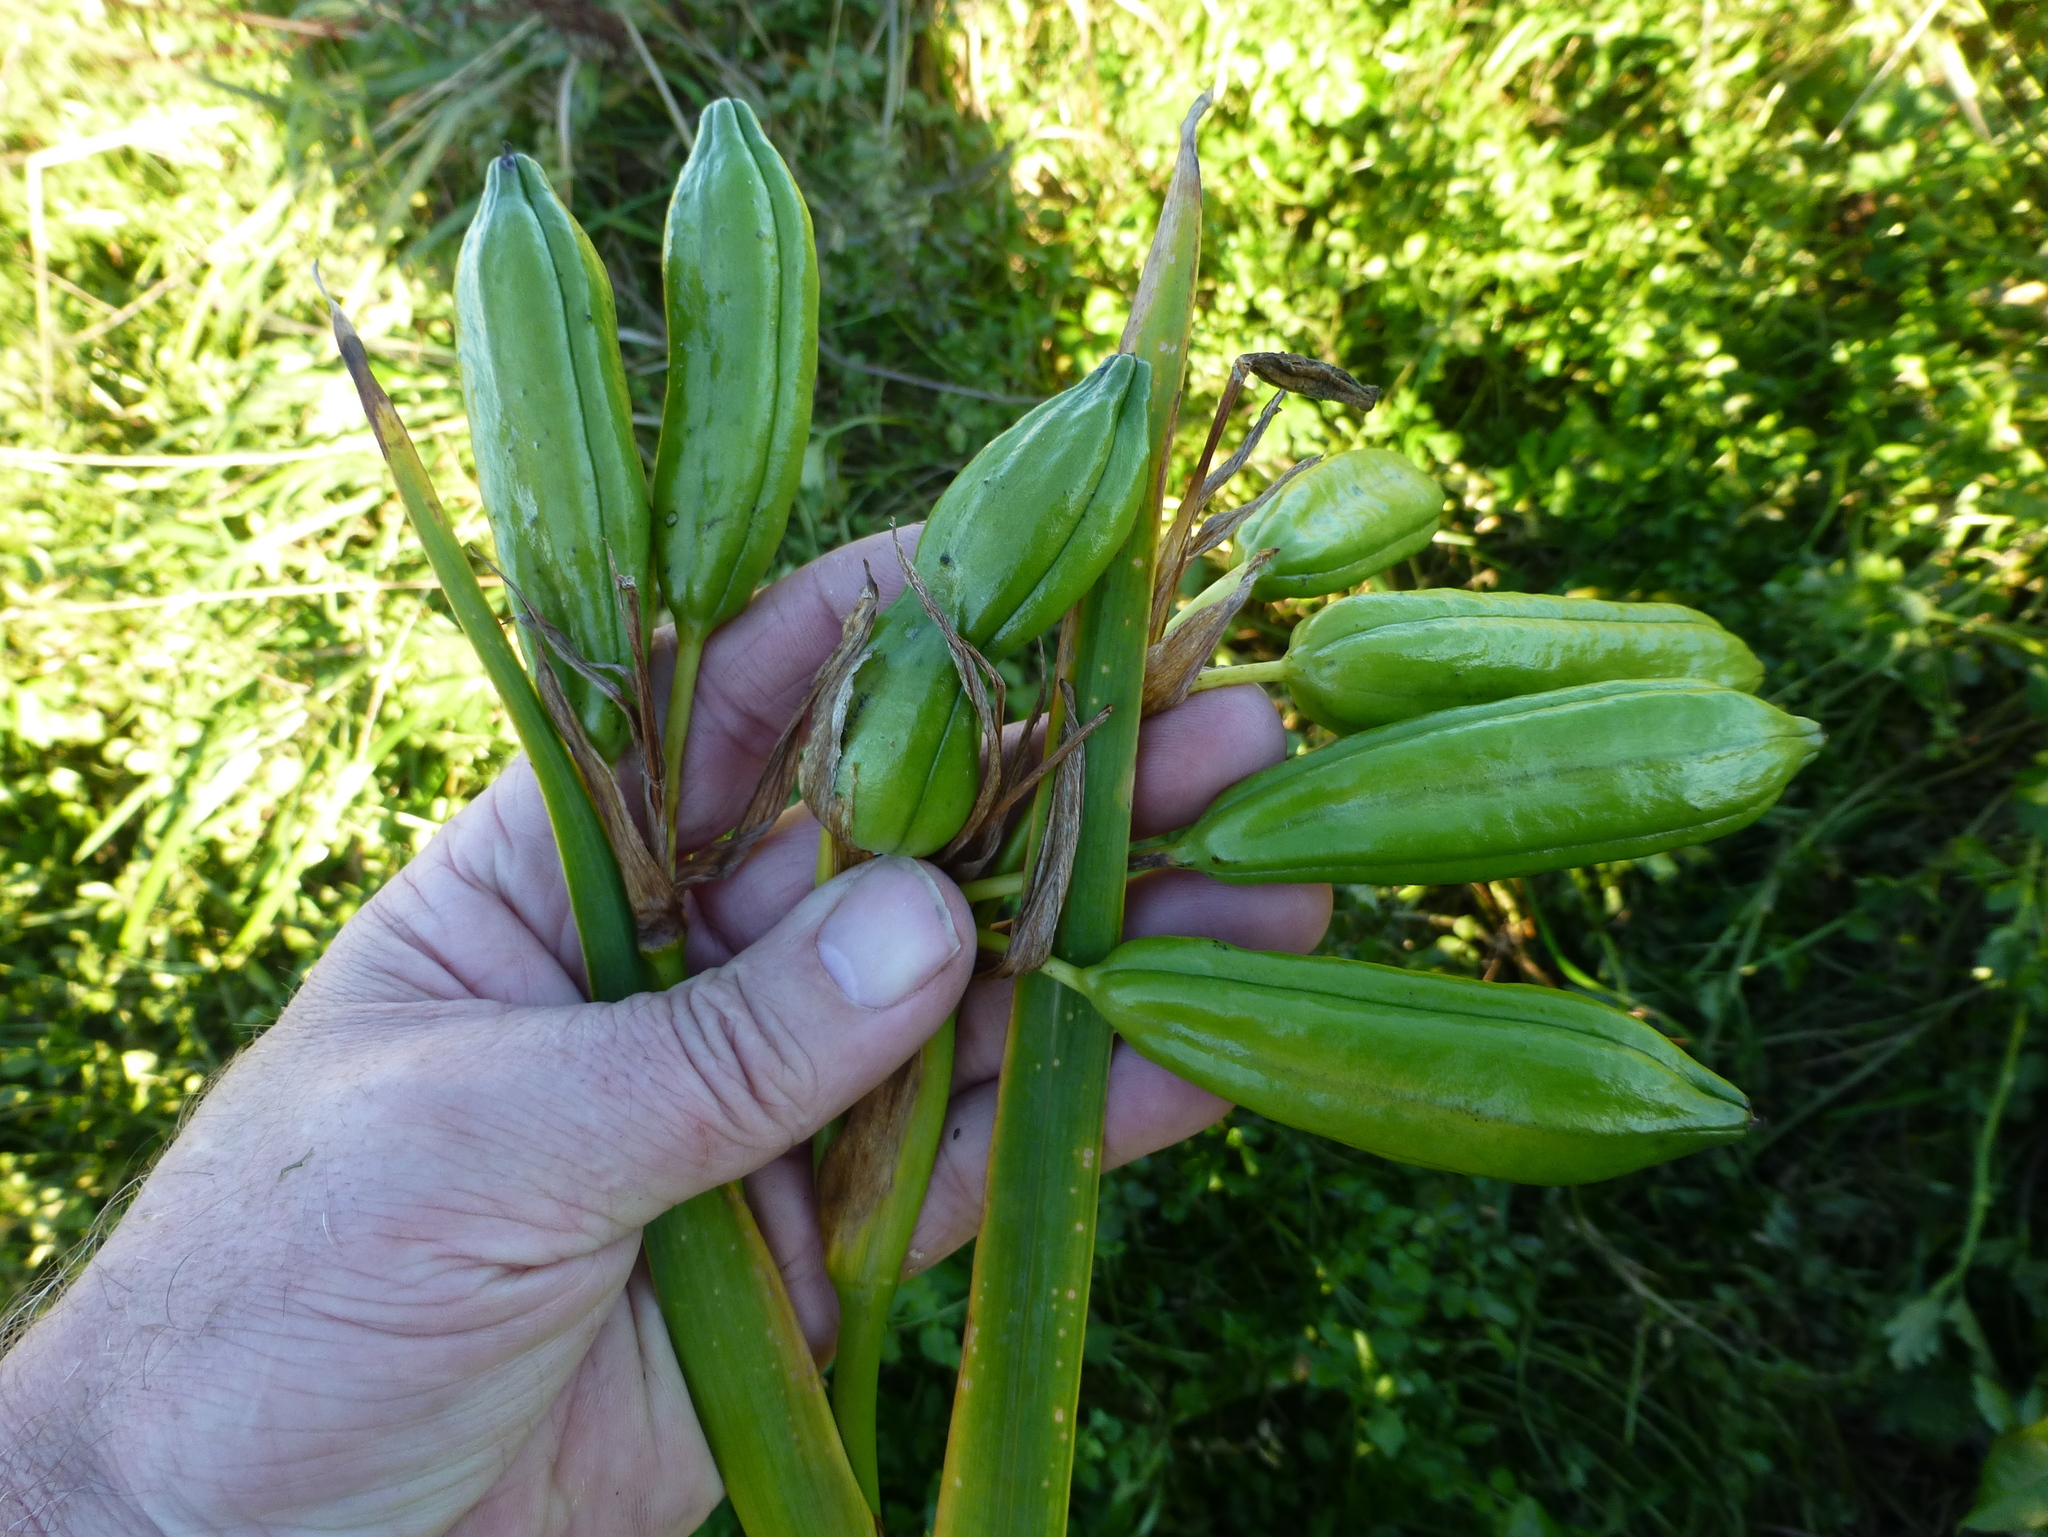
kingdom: Plantae
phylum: Tracheophyta
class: Liliopsida
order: Asparagales
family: Iridaceae
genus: Iris
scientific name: Iris pseudacorus
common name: Yellow flag
